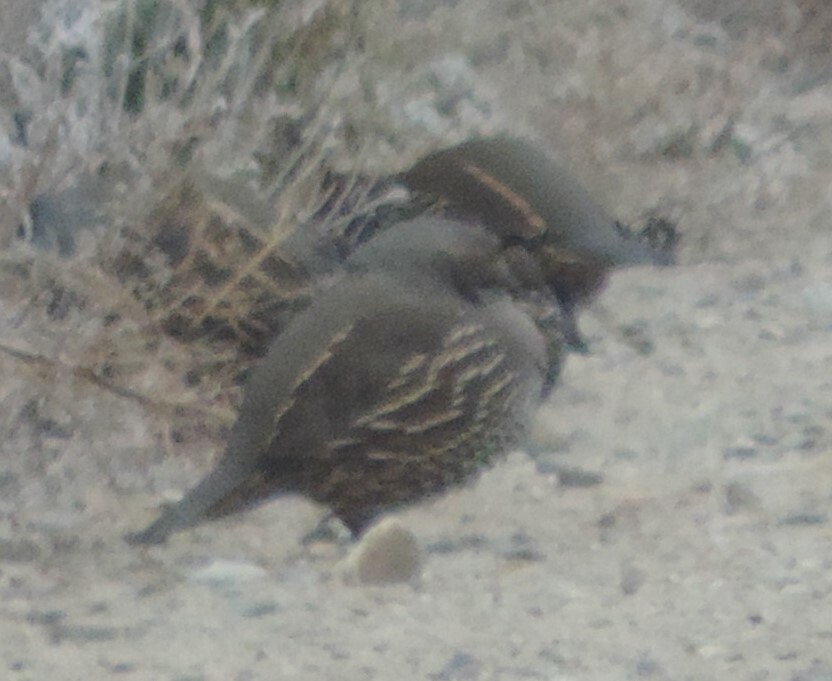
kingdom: Animalia
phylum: Chordata
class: Aves
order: Galliformes
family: Odontophoridae
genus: Callipepla
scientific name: Callipepla californica
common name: California quail
